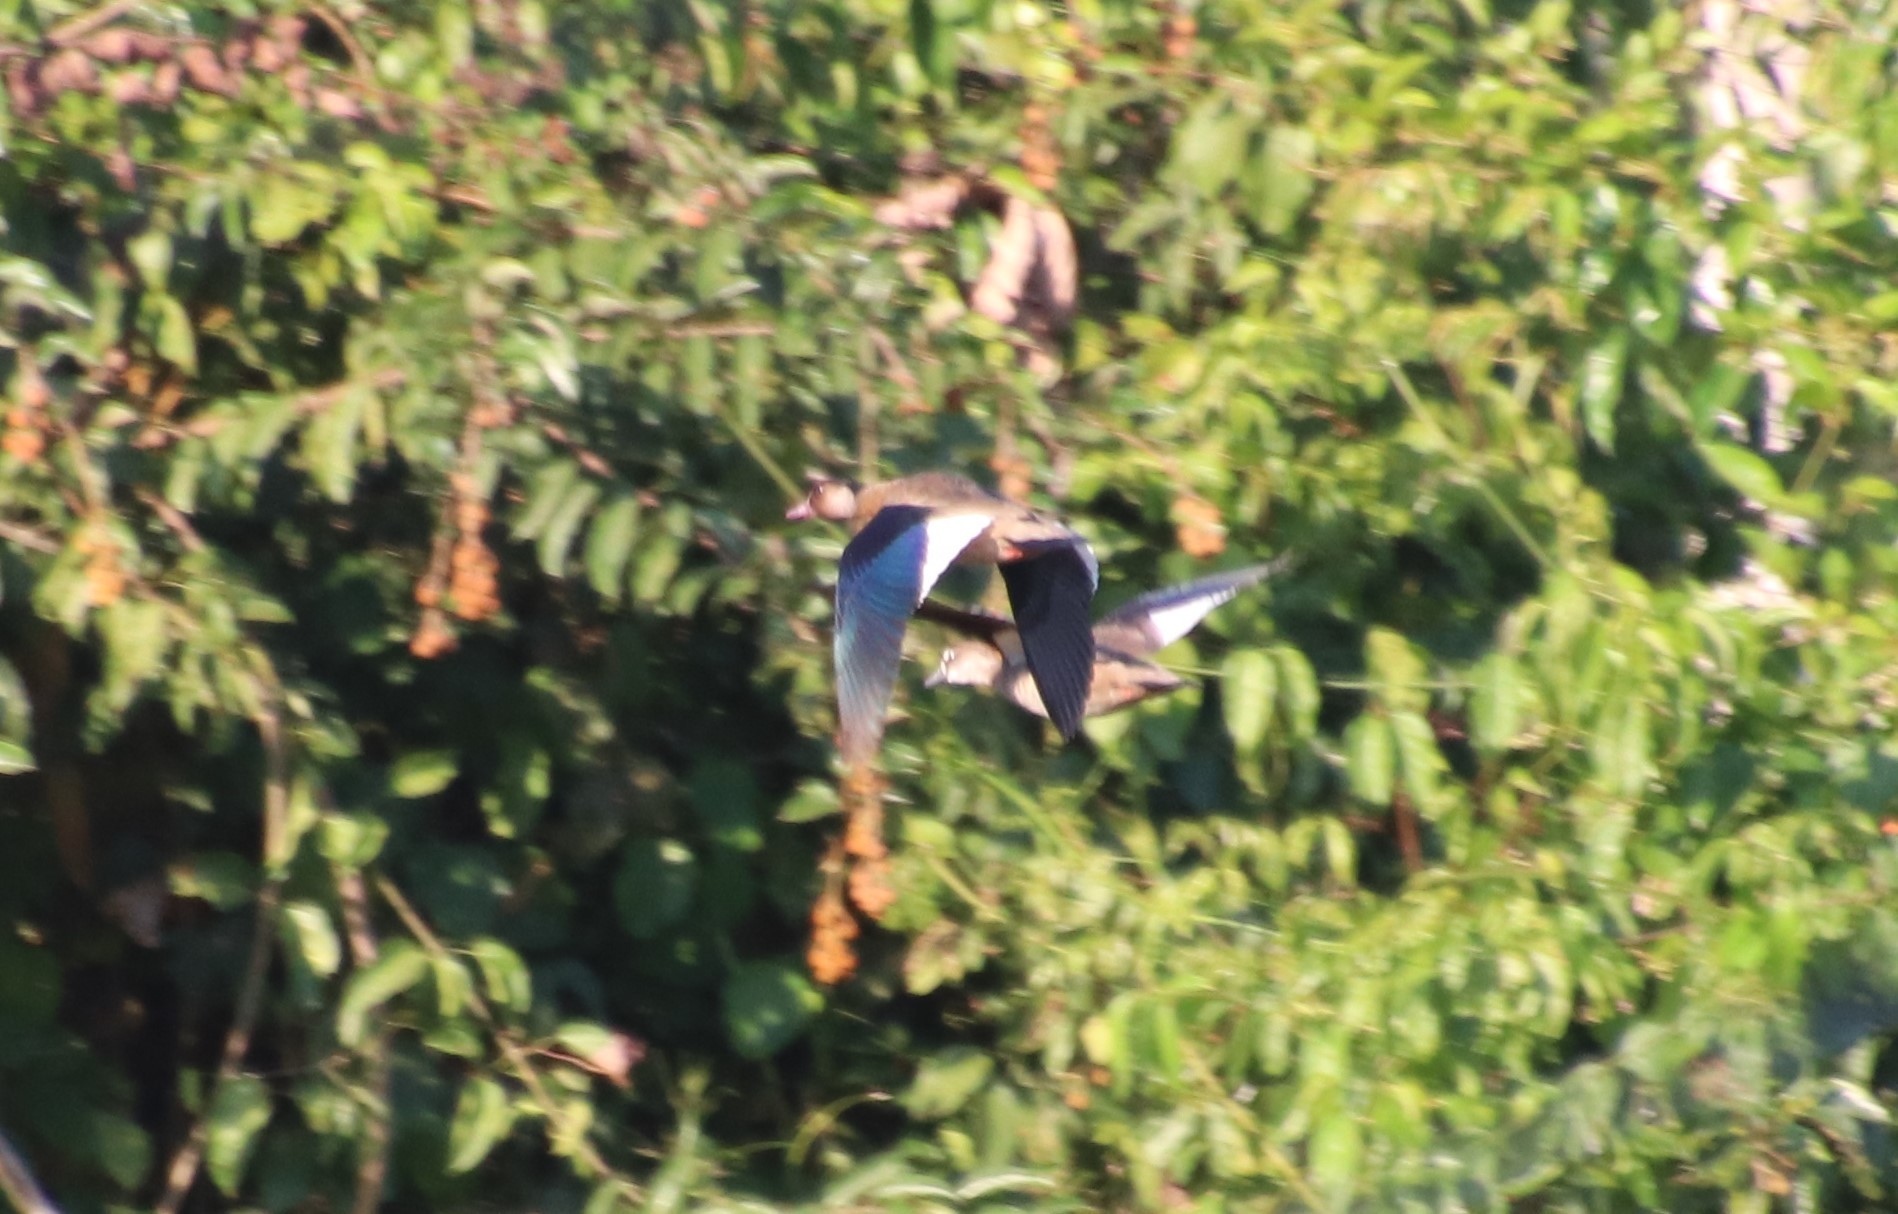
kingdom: Animalia
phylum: Chordata
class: Aves
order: Anseriformes
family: Anatidae
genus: Amazonetta
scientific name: Amazonetta brasiliensis
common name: Brazilian teal
